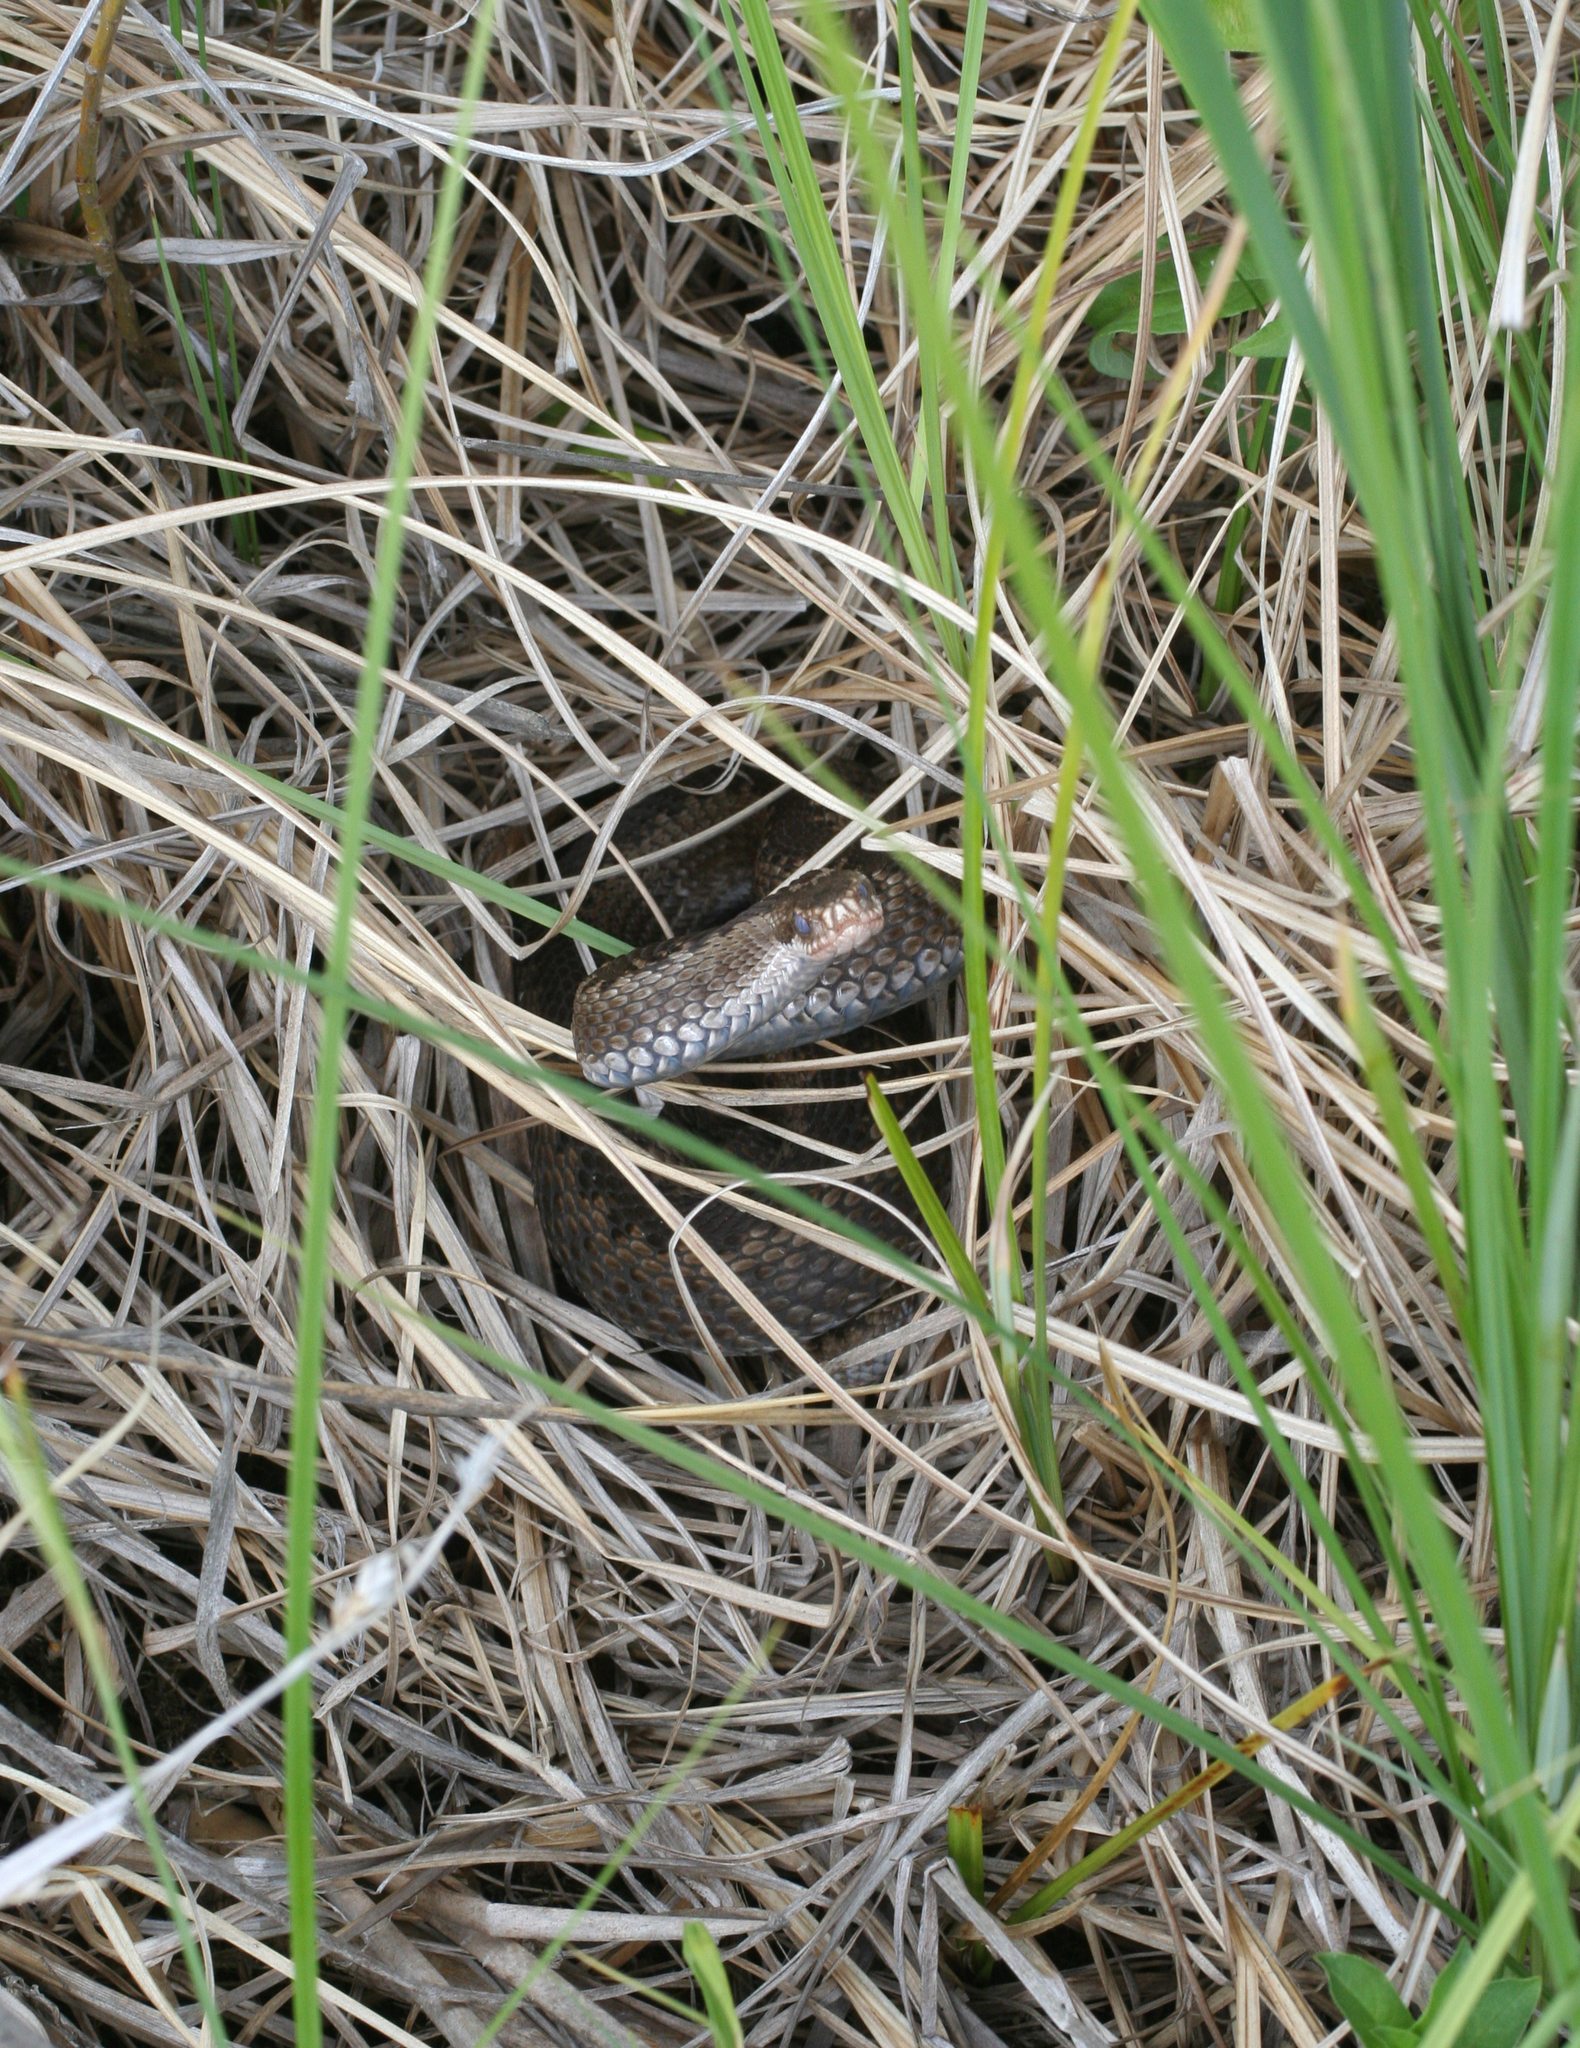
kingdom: Animalia
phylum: Chordata
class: Squamata
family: Viperidae
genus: Vipera
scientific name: Vipera berus
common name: Adder
